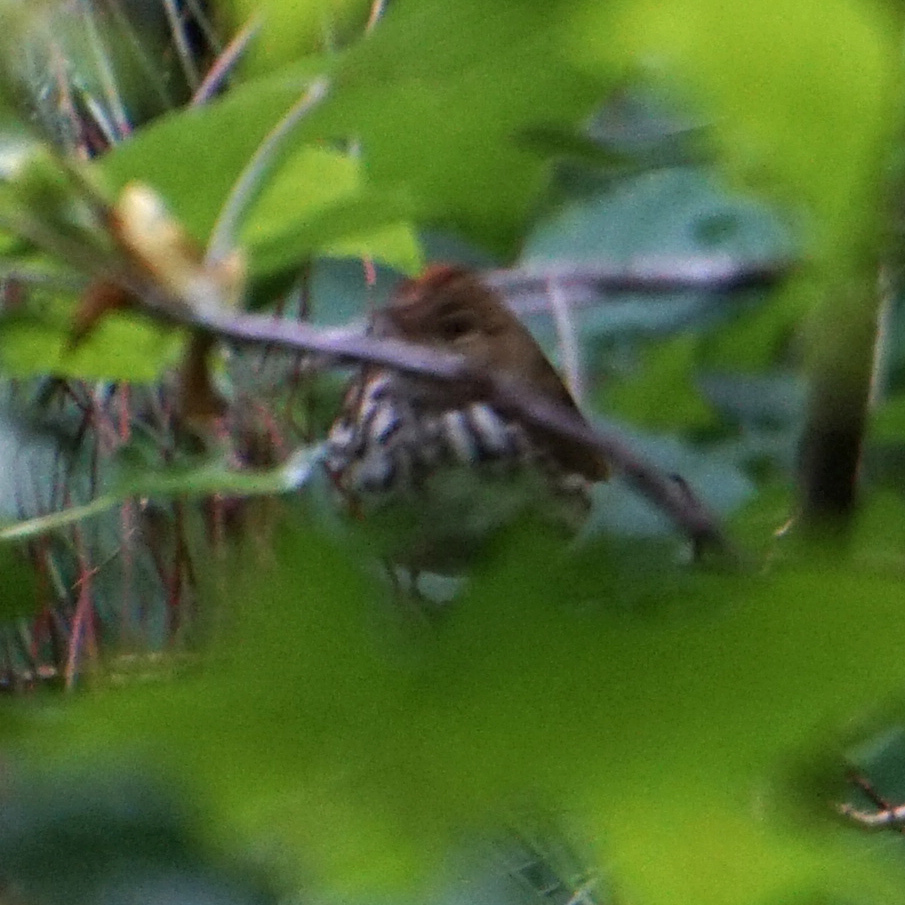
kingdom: Animalia
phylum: Chordata
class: Aves
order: Passeriformes
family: Parulidae
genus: Seiurus
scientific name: Seiurus aurocapilla
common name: Ovenbird
